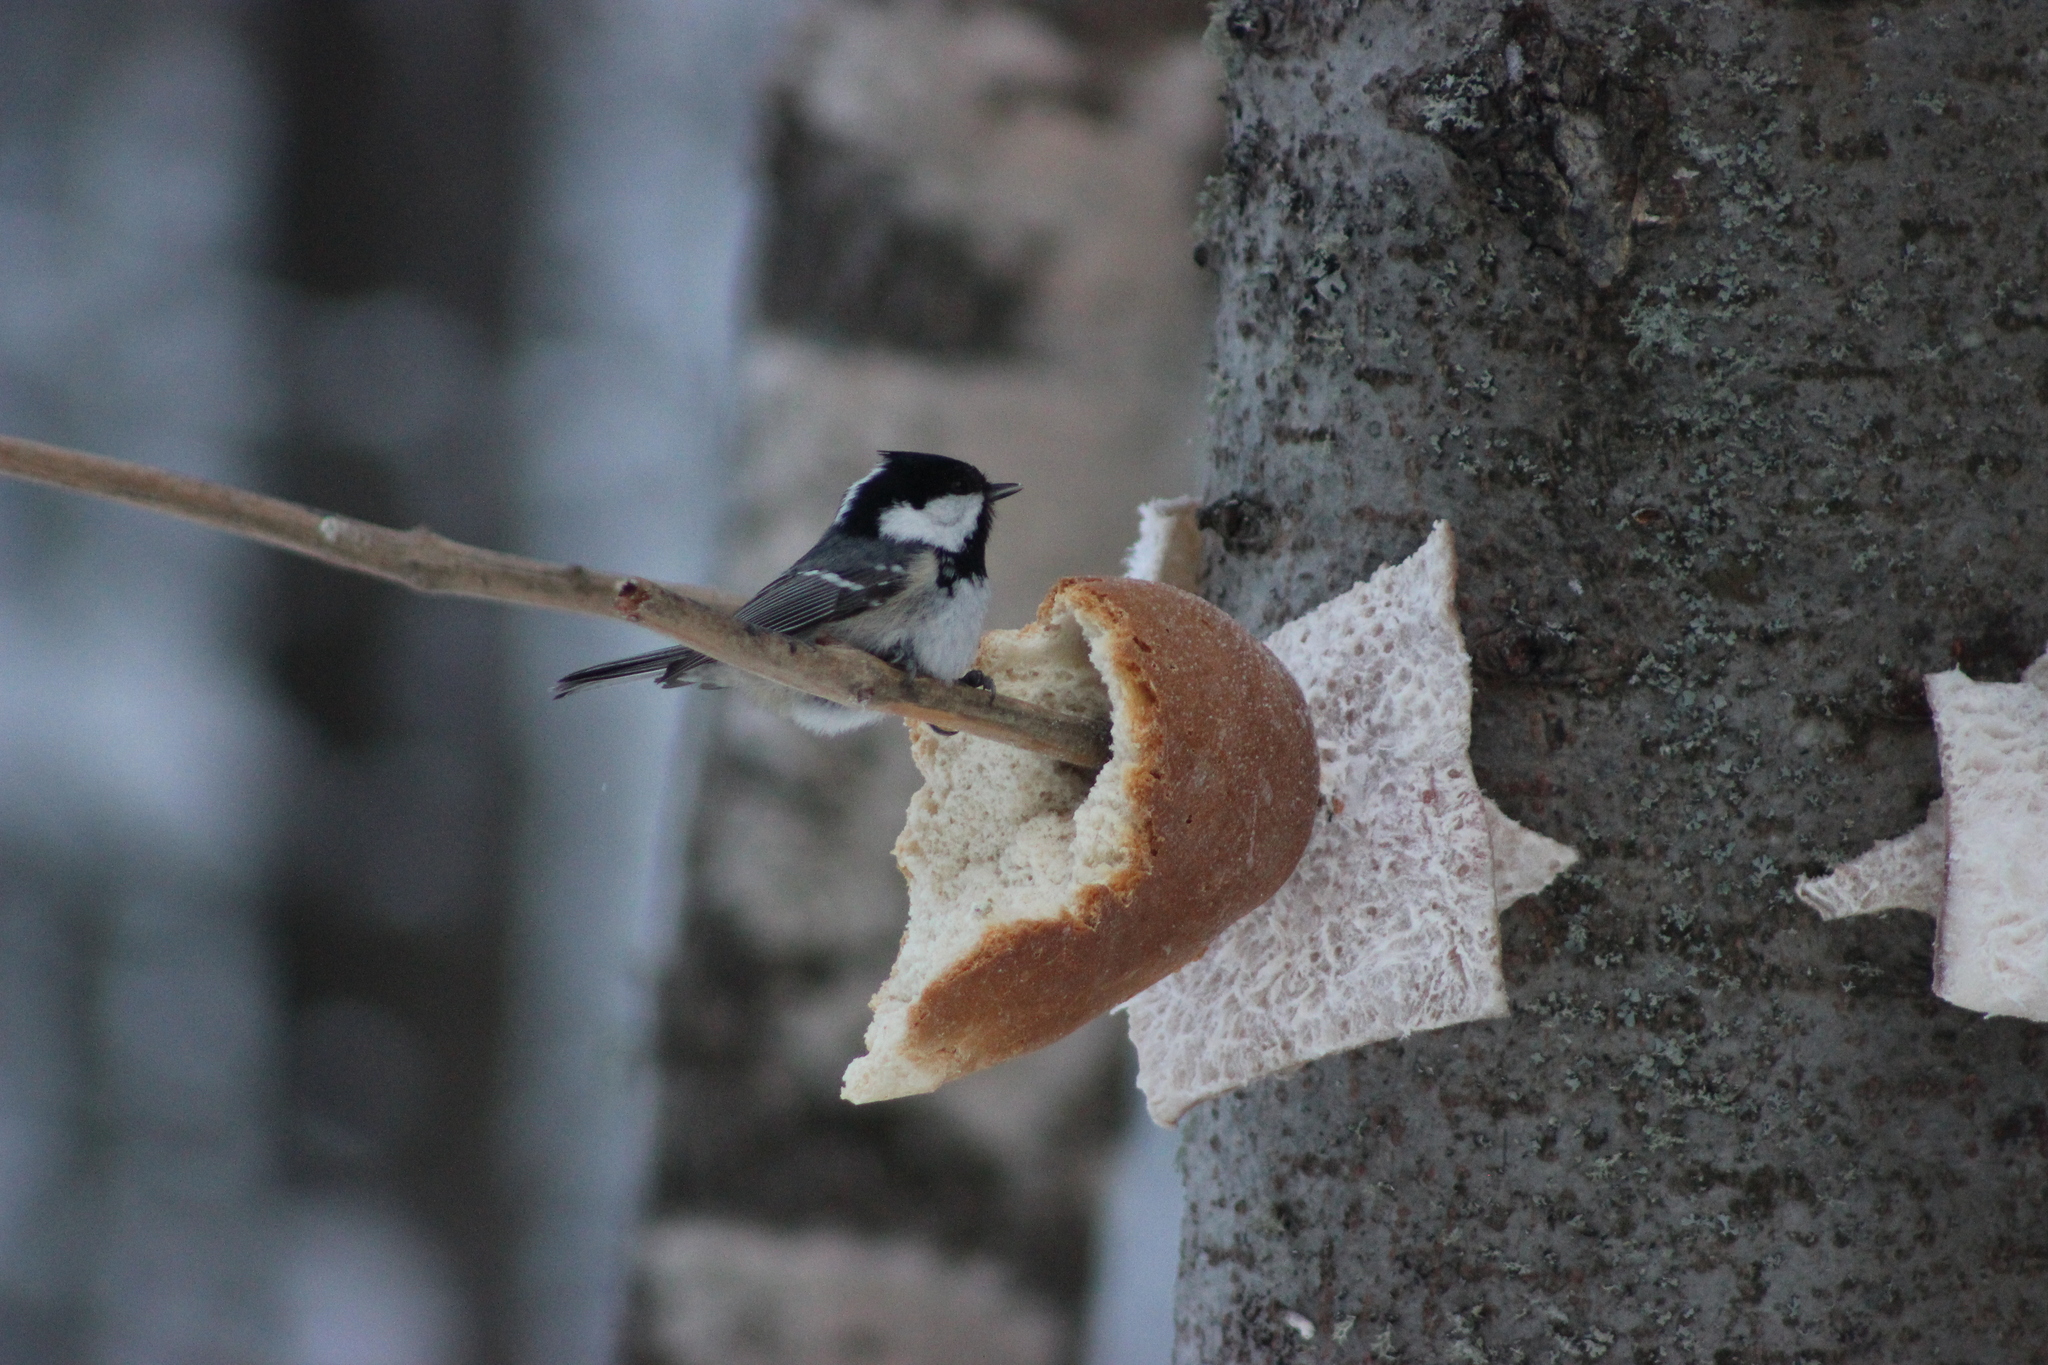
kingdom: Animalia
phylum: Chordata
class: Aves
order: Passeriformes
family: Paridae
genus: Periparus
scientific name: Periparus ater
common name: Coal tit
